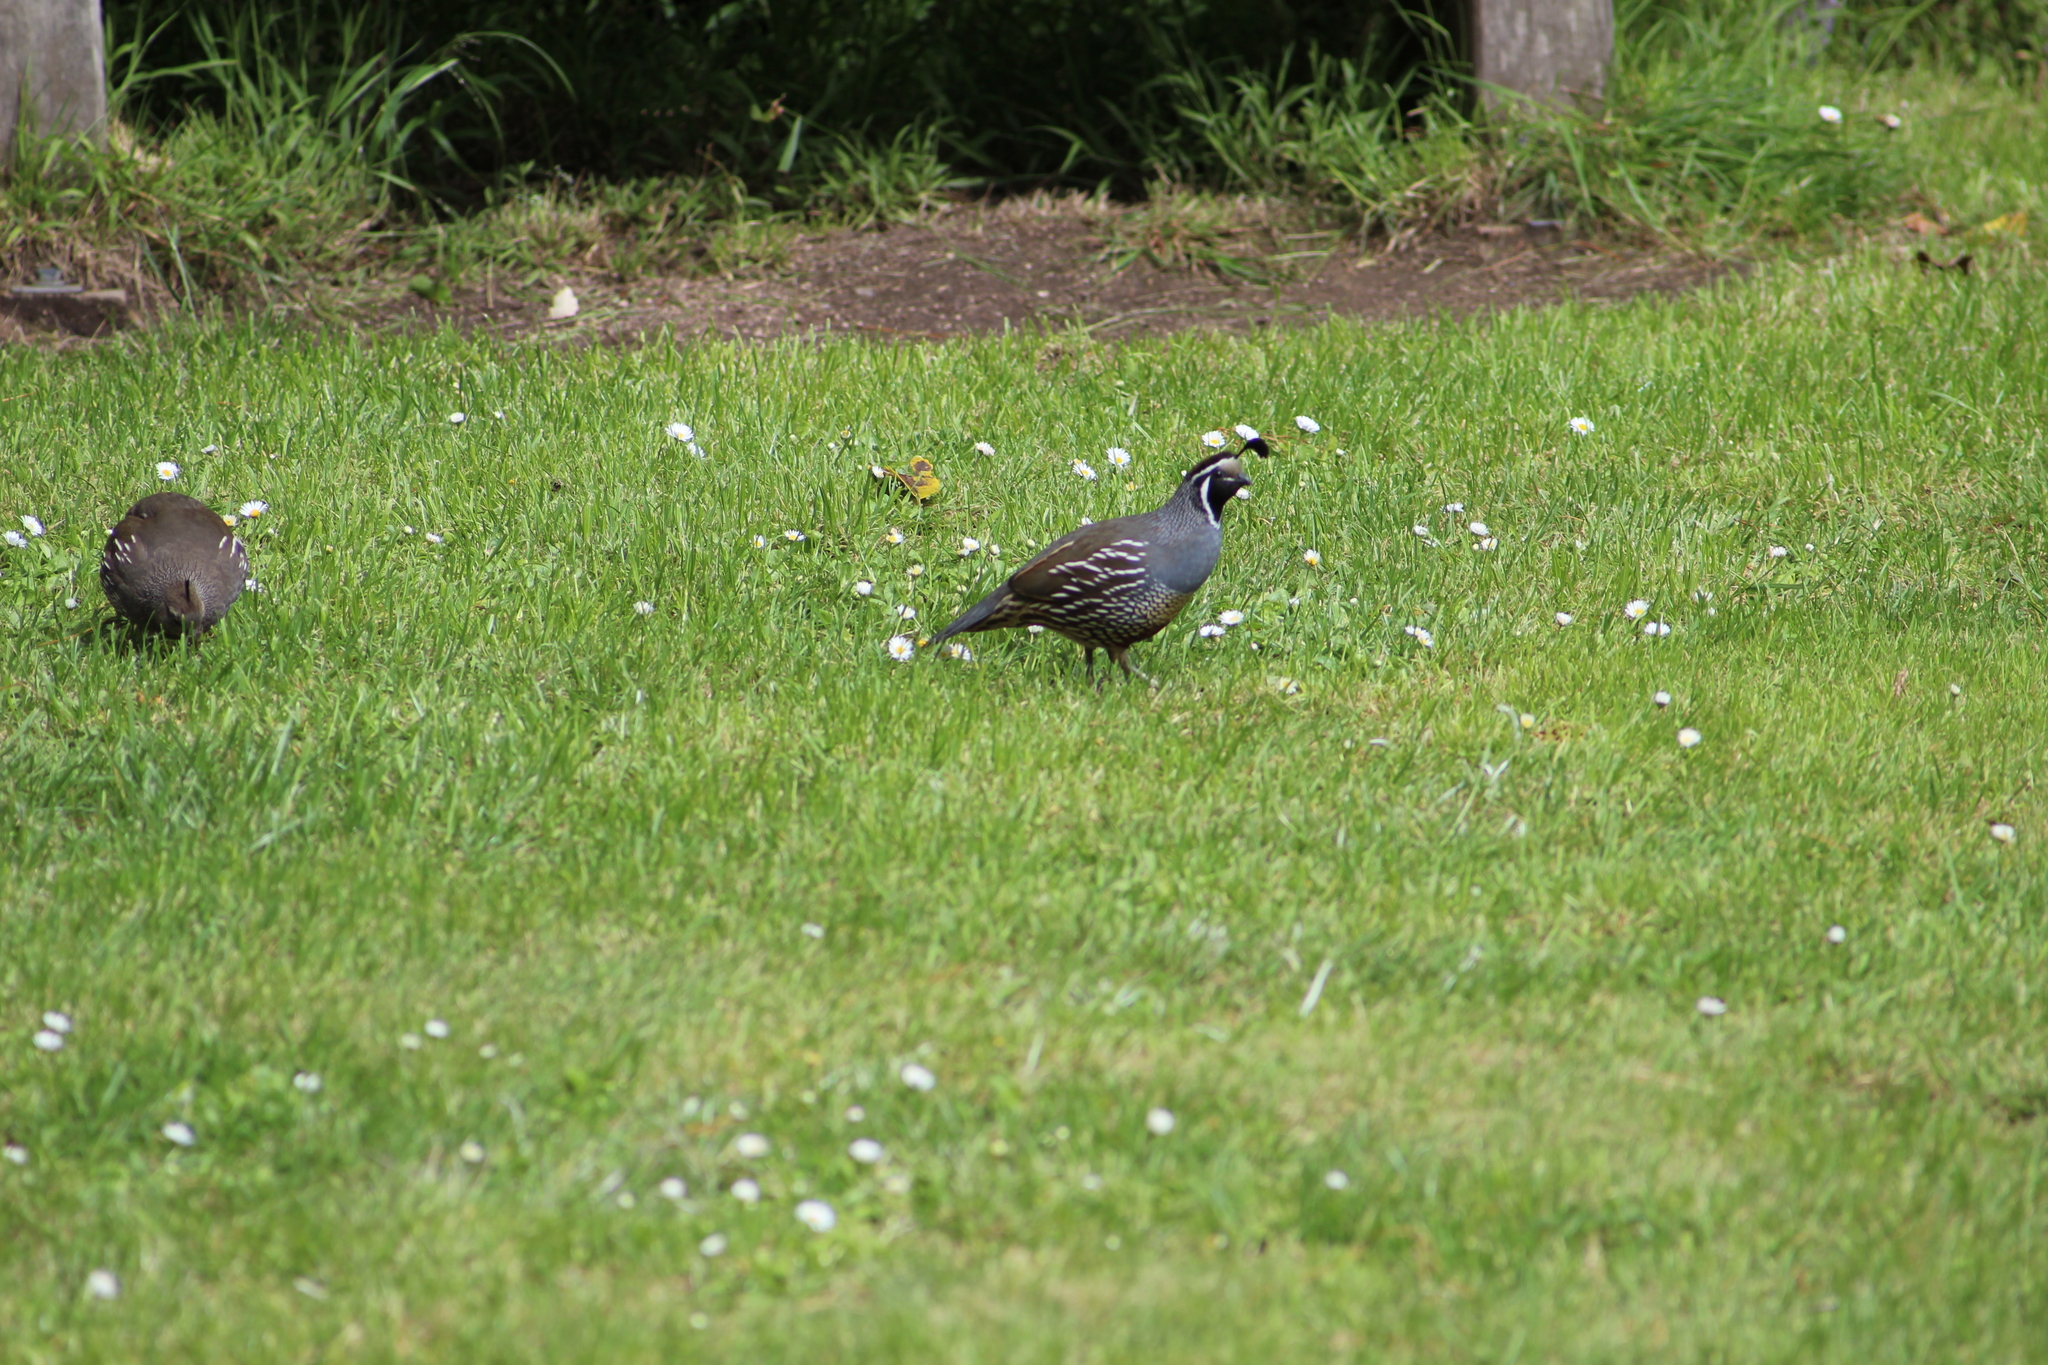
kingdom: Animalia
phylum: Chordata
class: Aves
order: Galliformes
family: Odontophoridae
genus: Callipepla
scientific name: Callipepla californica
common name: California quail
